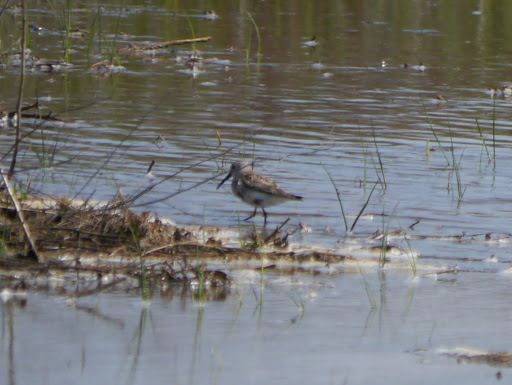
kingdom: Animalia
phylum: Chordata
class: Aves
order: Charadriiformes
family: Scolopacidae
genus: Calidris
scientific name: Calidris alpina
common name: Dunlin
